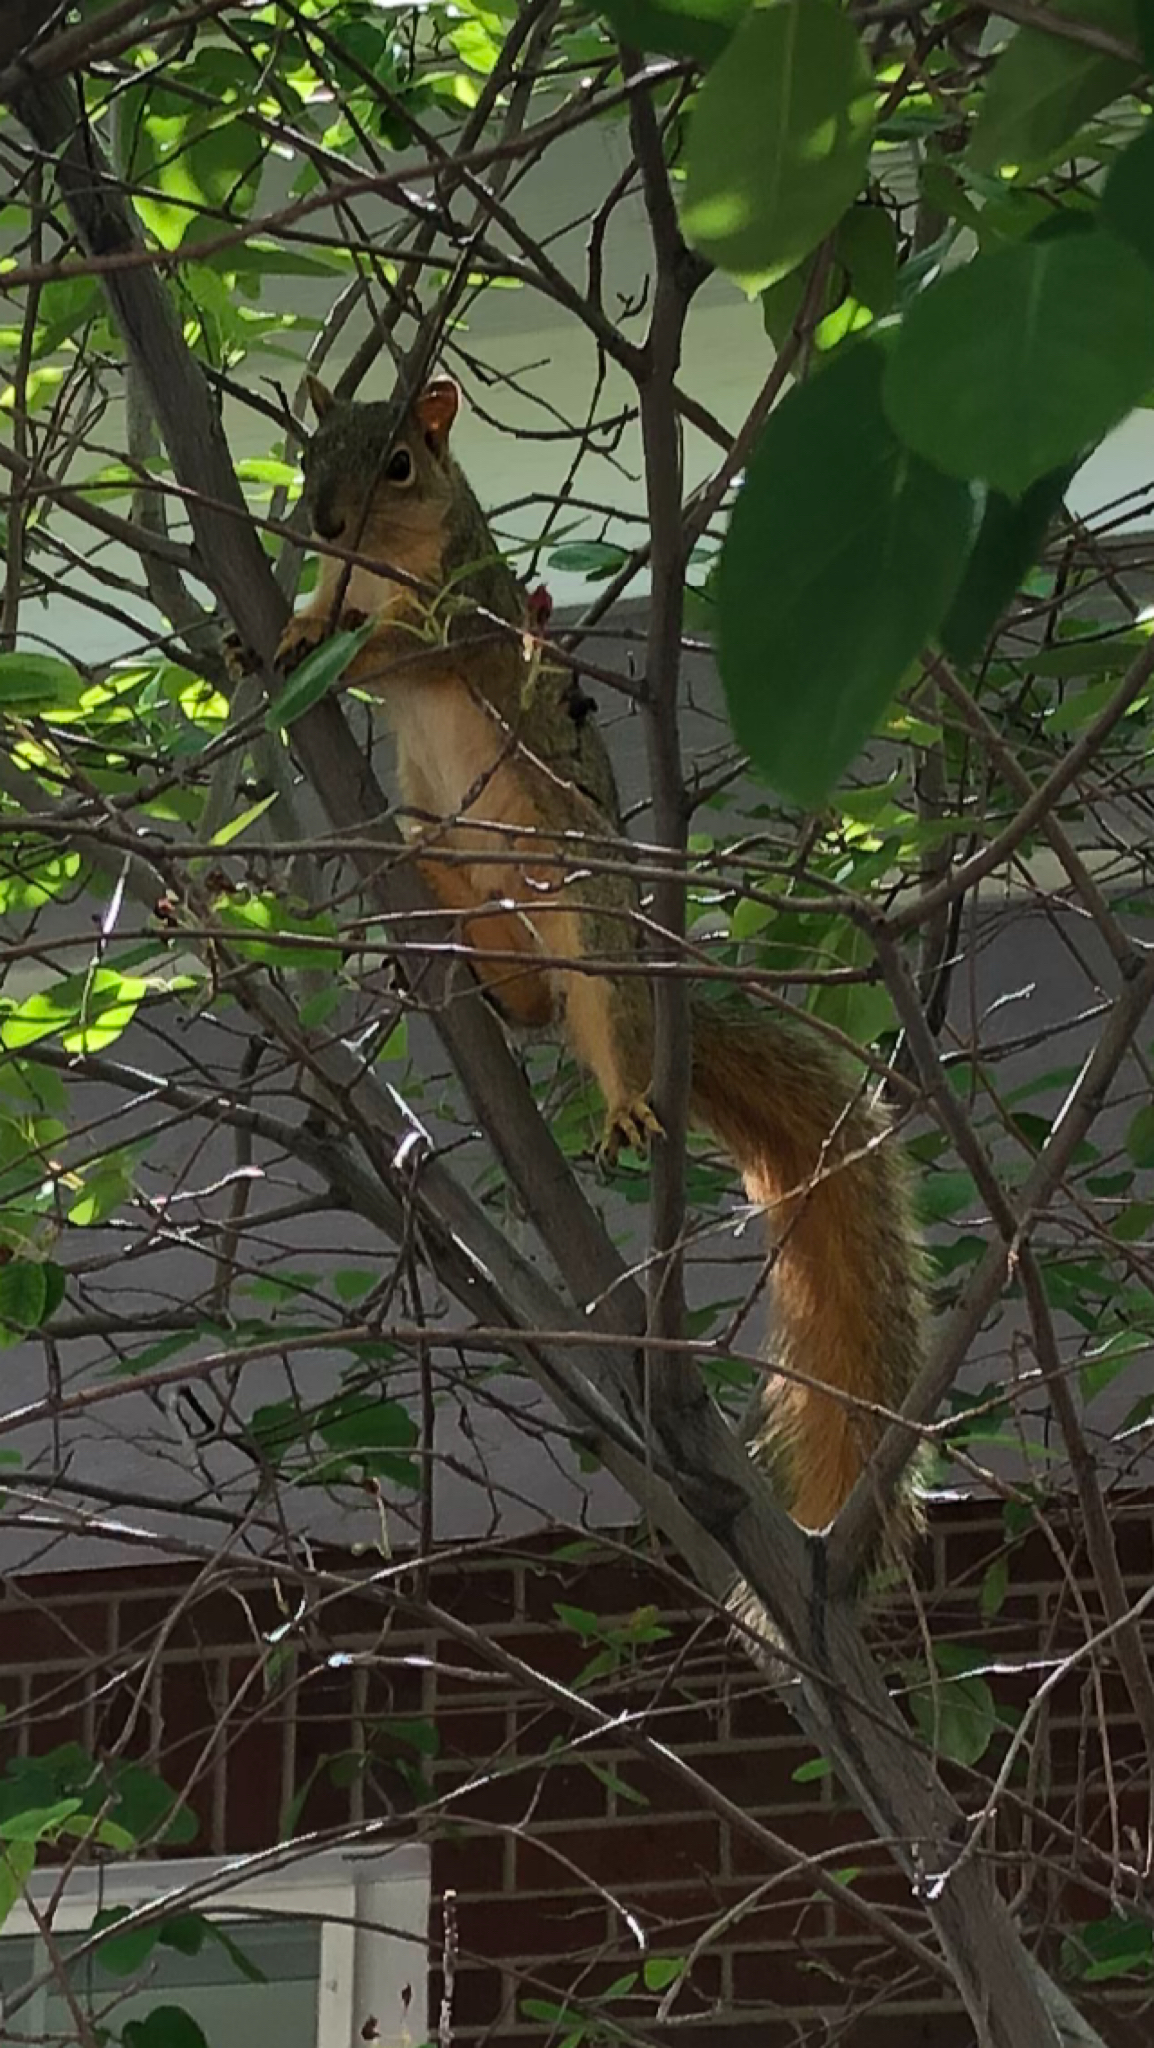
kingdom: Animalia
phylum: Chordata
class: Mammalia
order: Rodentia
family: Sciuridae
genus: Sciurus
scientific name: Sciurus niger
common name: Fox squirrel
